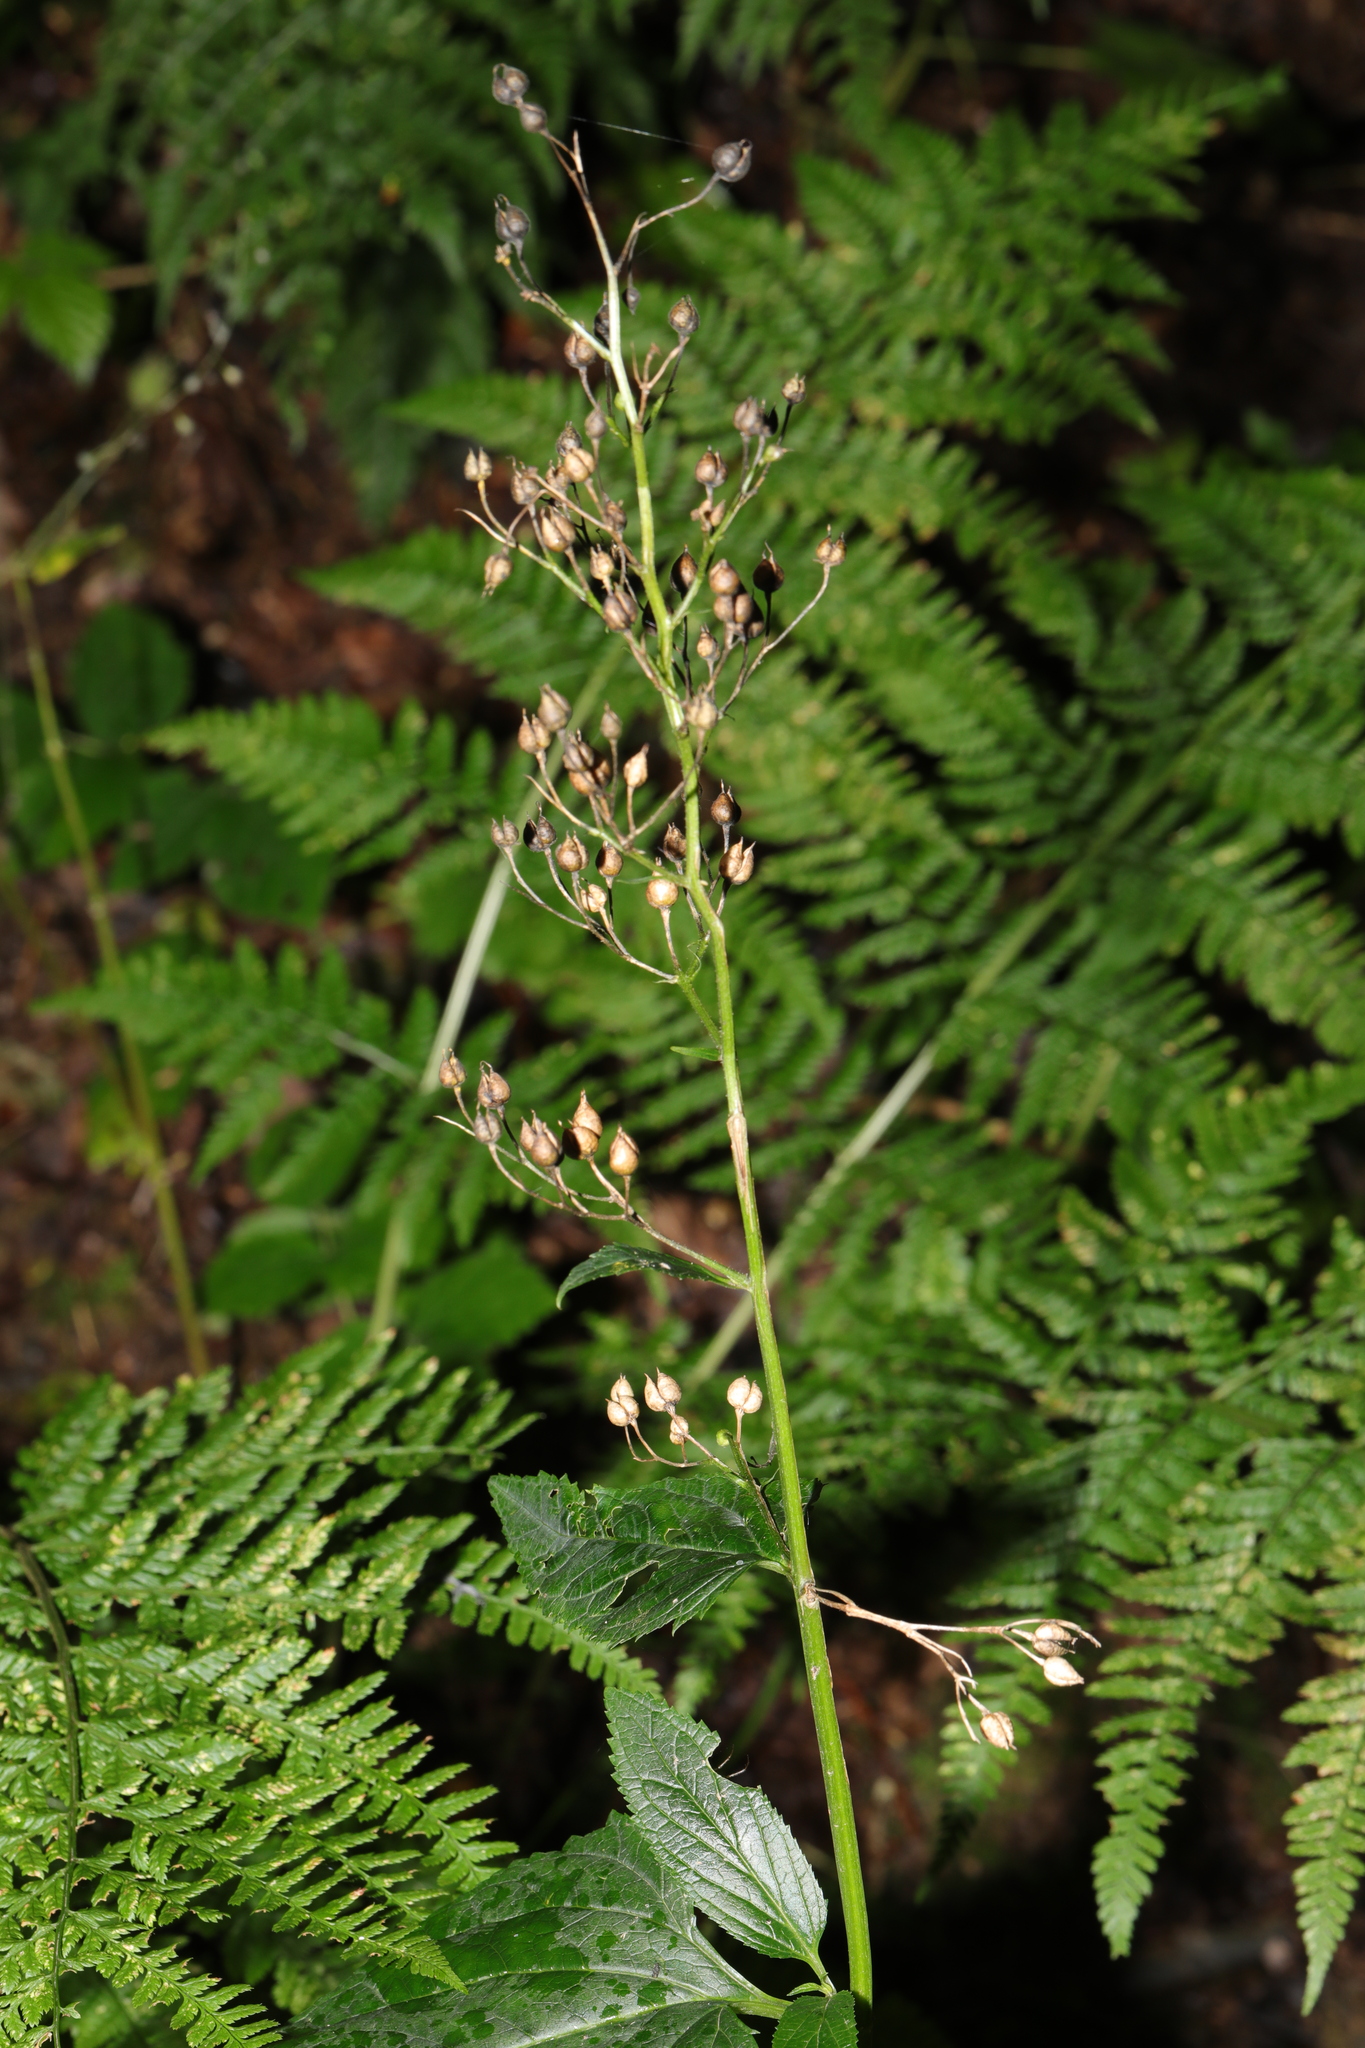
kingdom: Plantae
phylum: Tracheophyta
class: Magnoliopsida
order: Lamiales
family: Scrophulariaceae
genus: Scrophularia
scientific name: Scrophularia nodosa
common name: Common figwort
